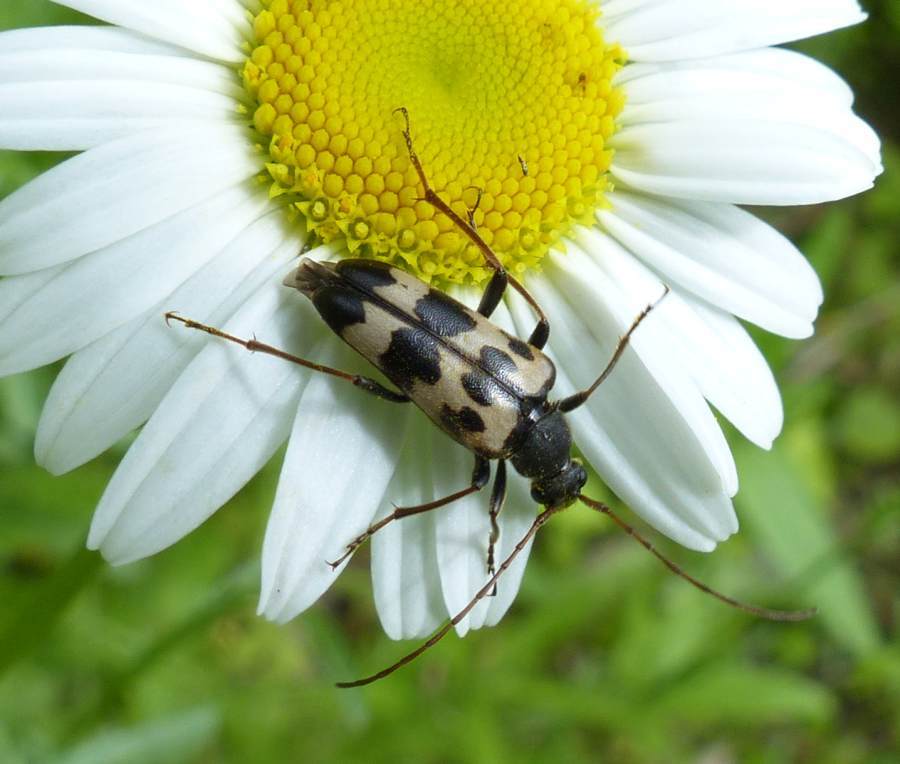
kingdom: Animalia
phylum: Arthropoda
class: Insecta
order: Coleoptera
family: Cerambycidae
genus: Judolia
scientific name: Judolia montivagans
